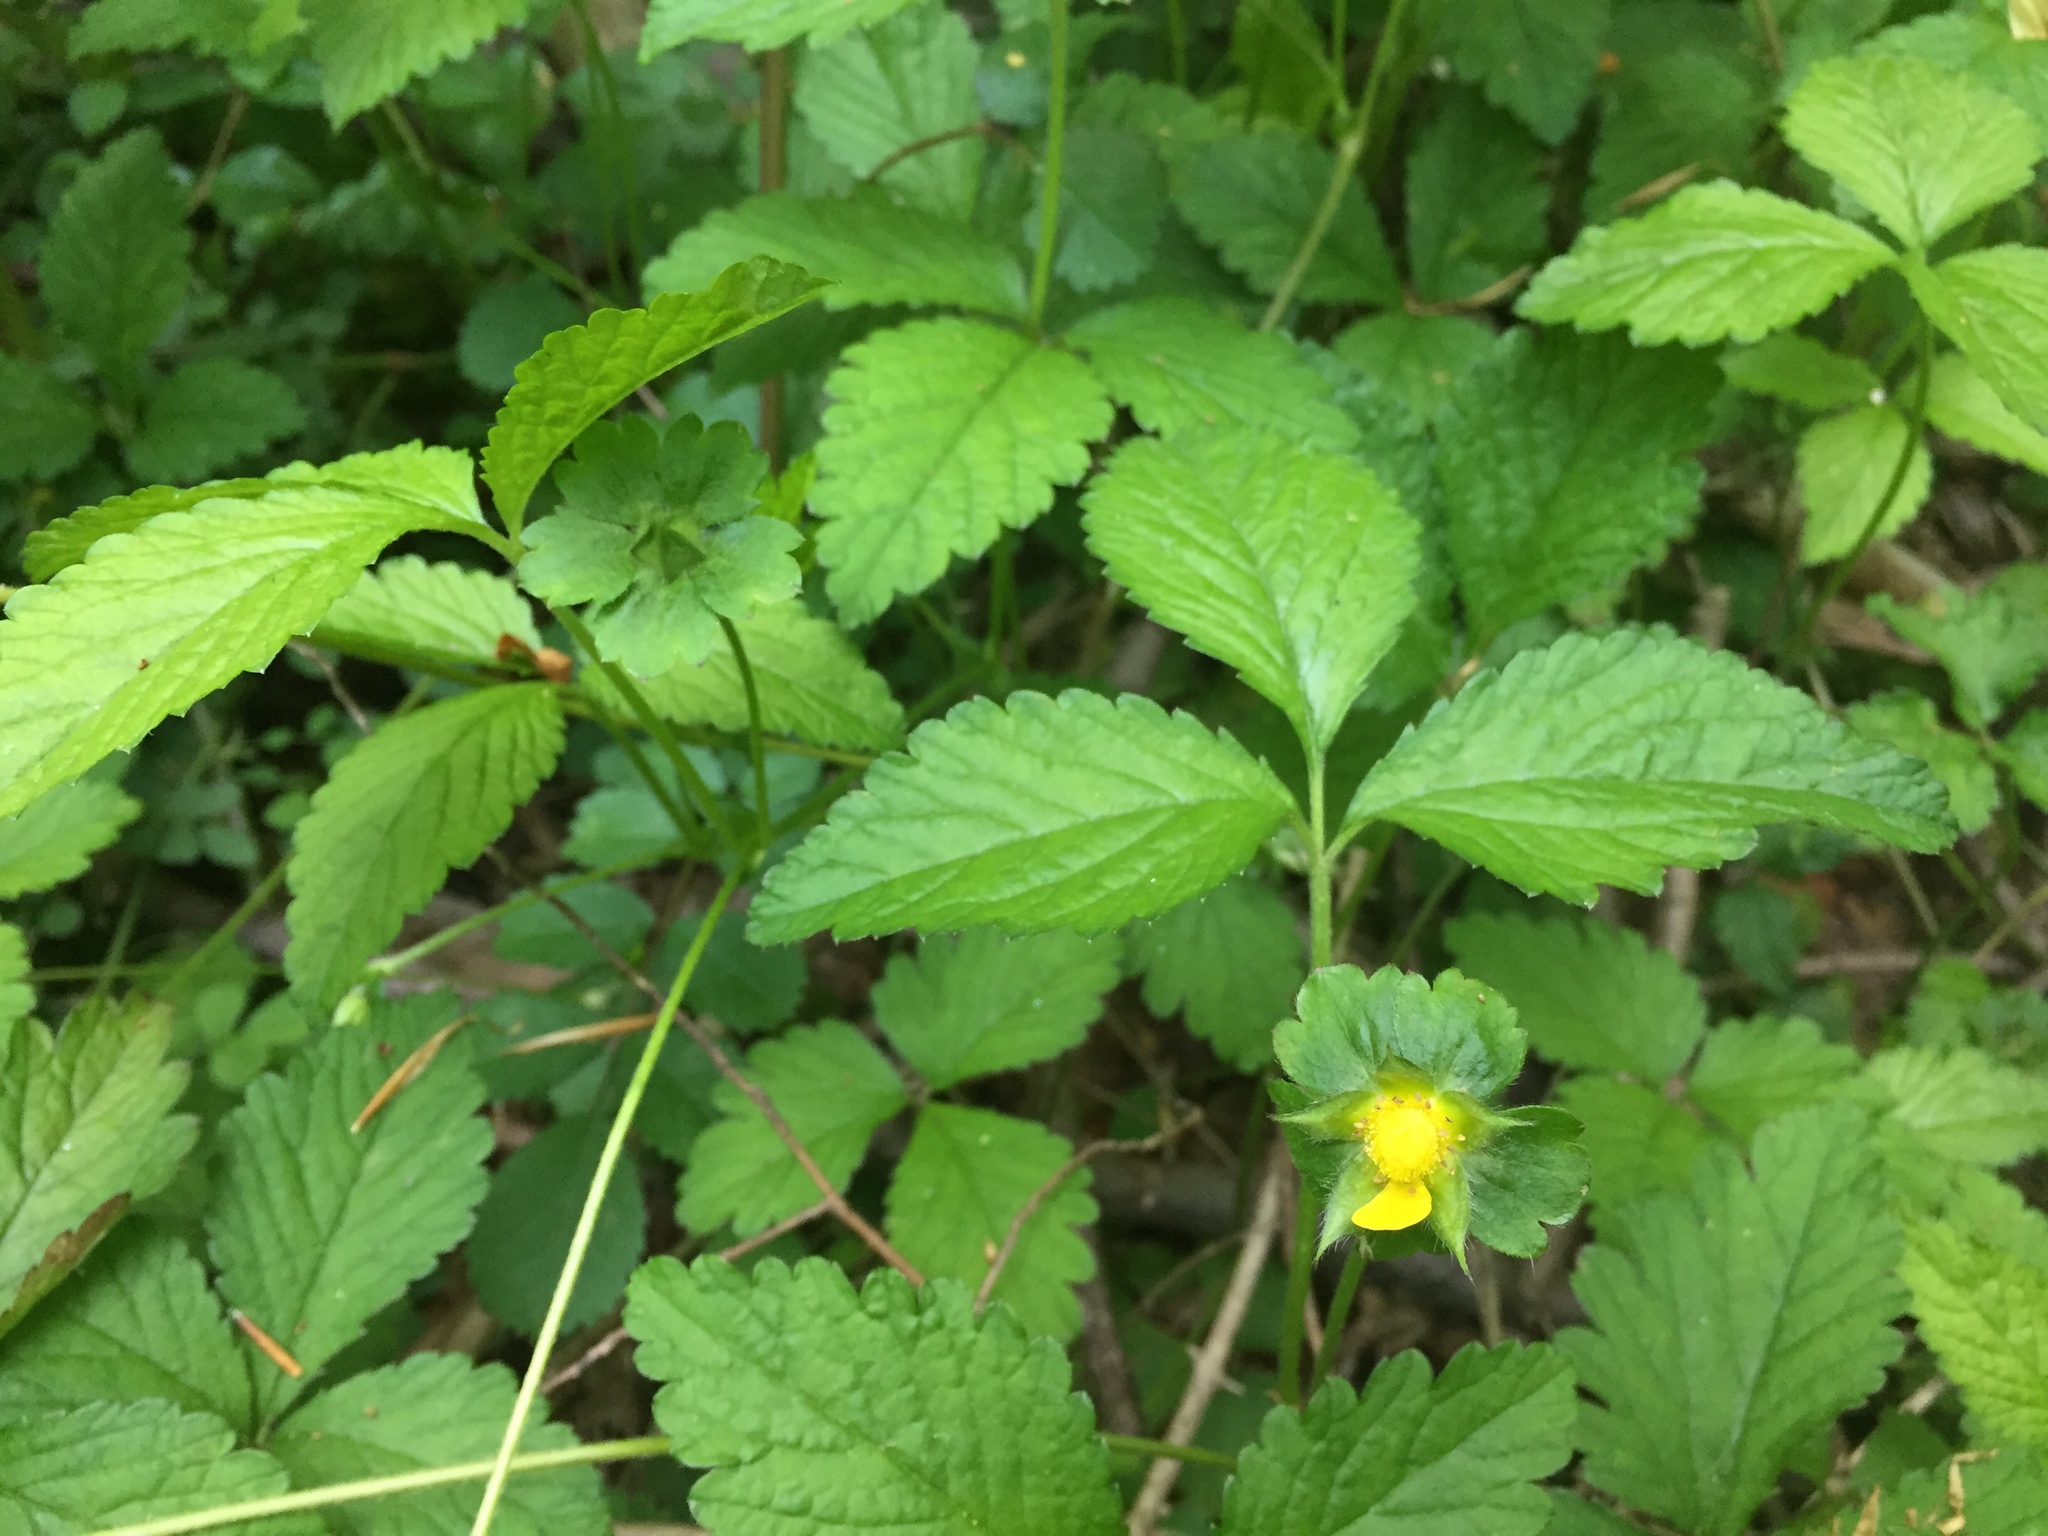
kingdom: Plantae
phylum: Tracheophyta
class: Magnoliopsida
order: Rosales
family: Rosaceae
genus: Potentilla
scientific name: Potentilla indica
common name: Yellow-flowered strawberry
